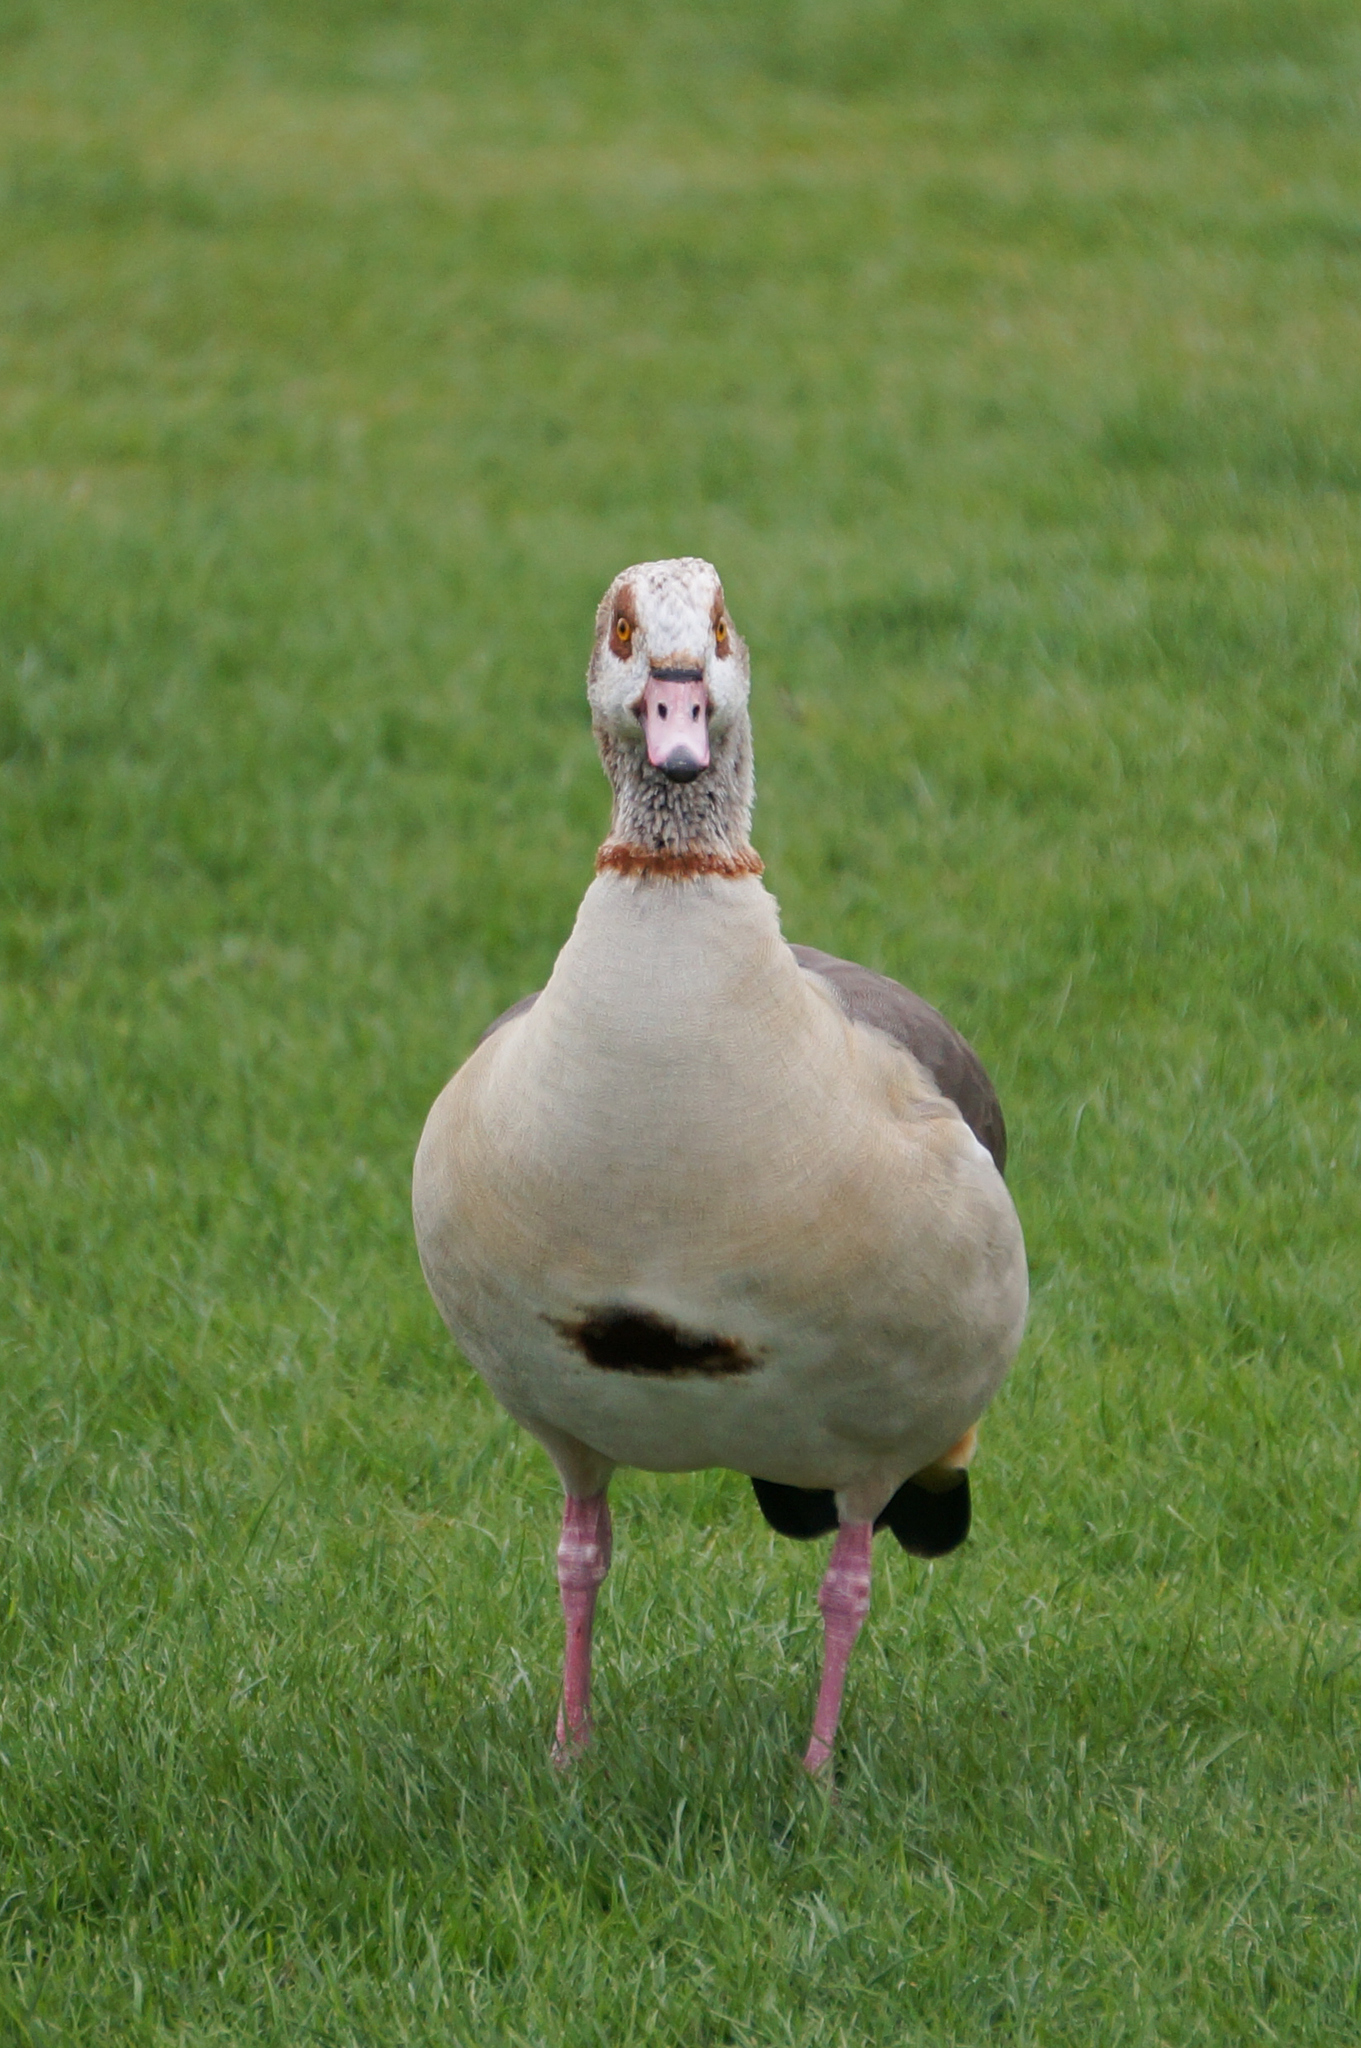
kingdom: Animalia
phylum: Chordata
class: Aves
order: Anseriformes
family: Anatidae
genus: Alopochen
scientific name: Alopochen aegyptiaca
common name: Egyptian goose
